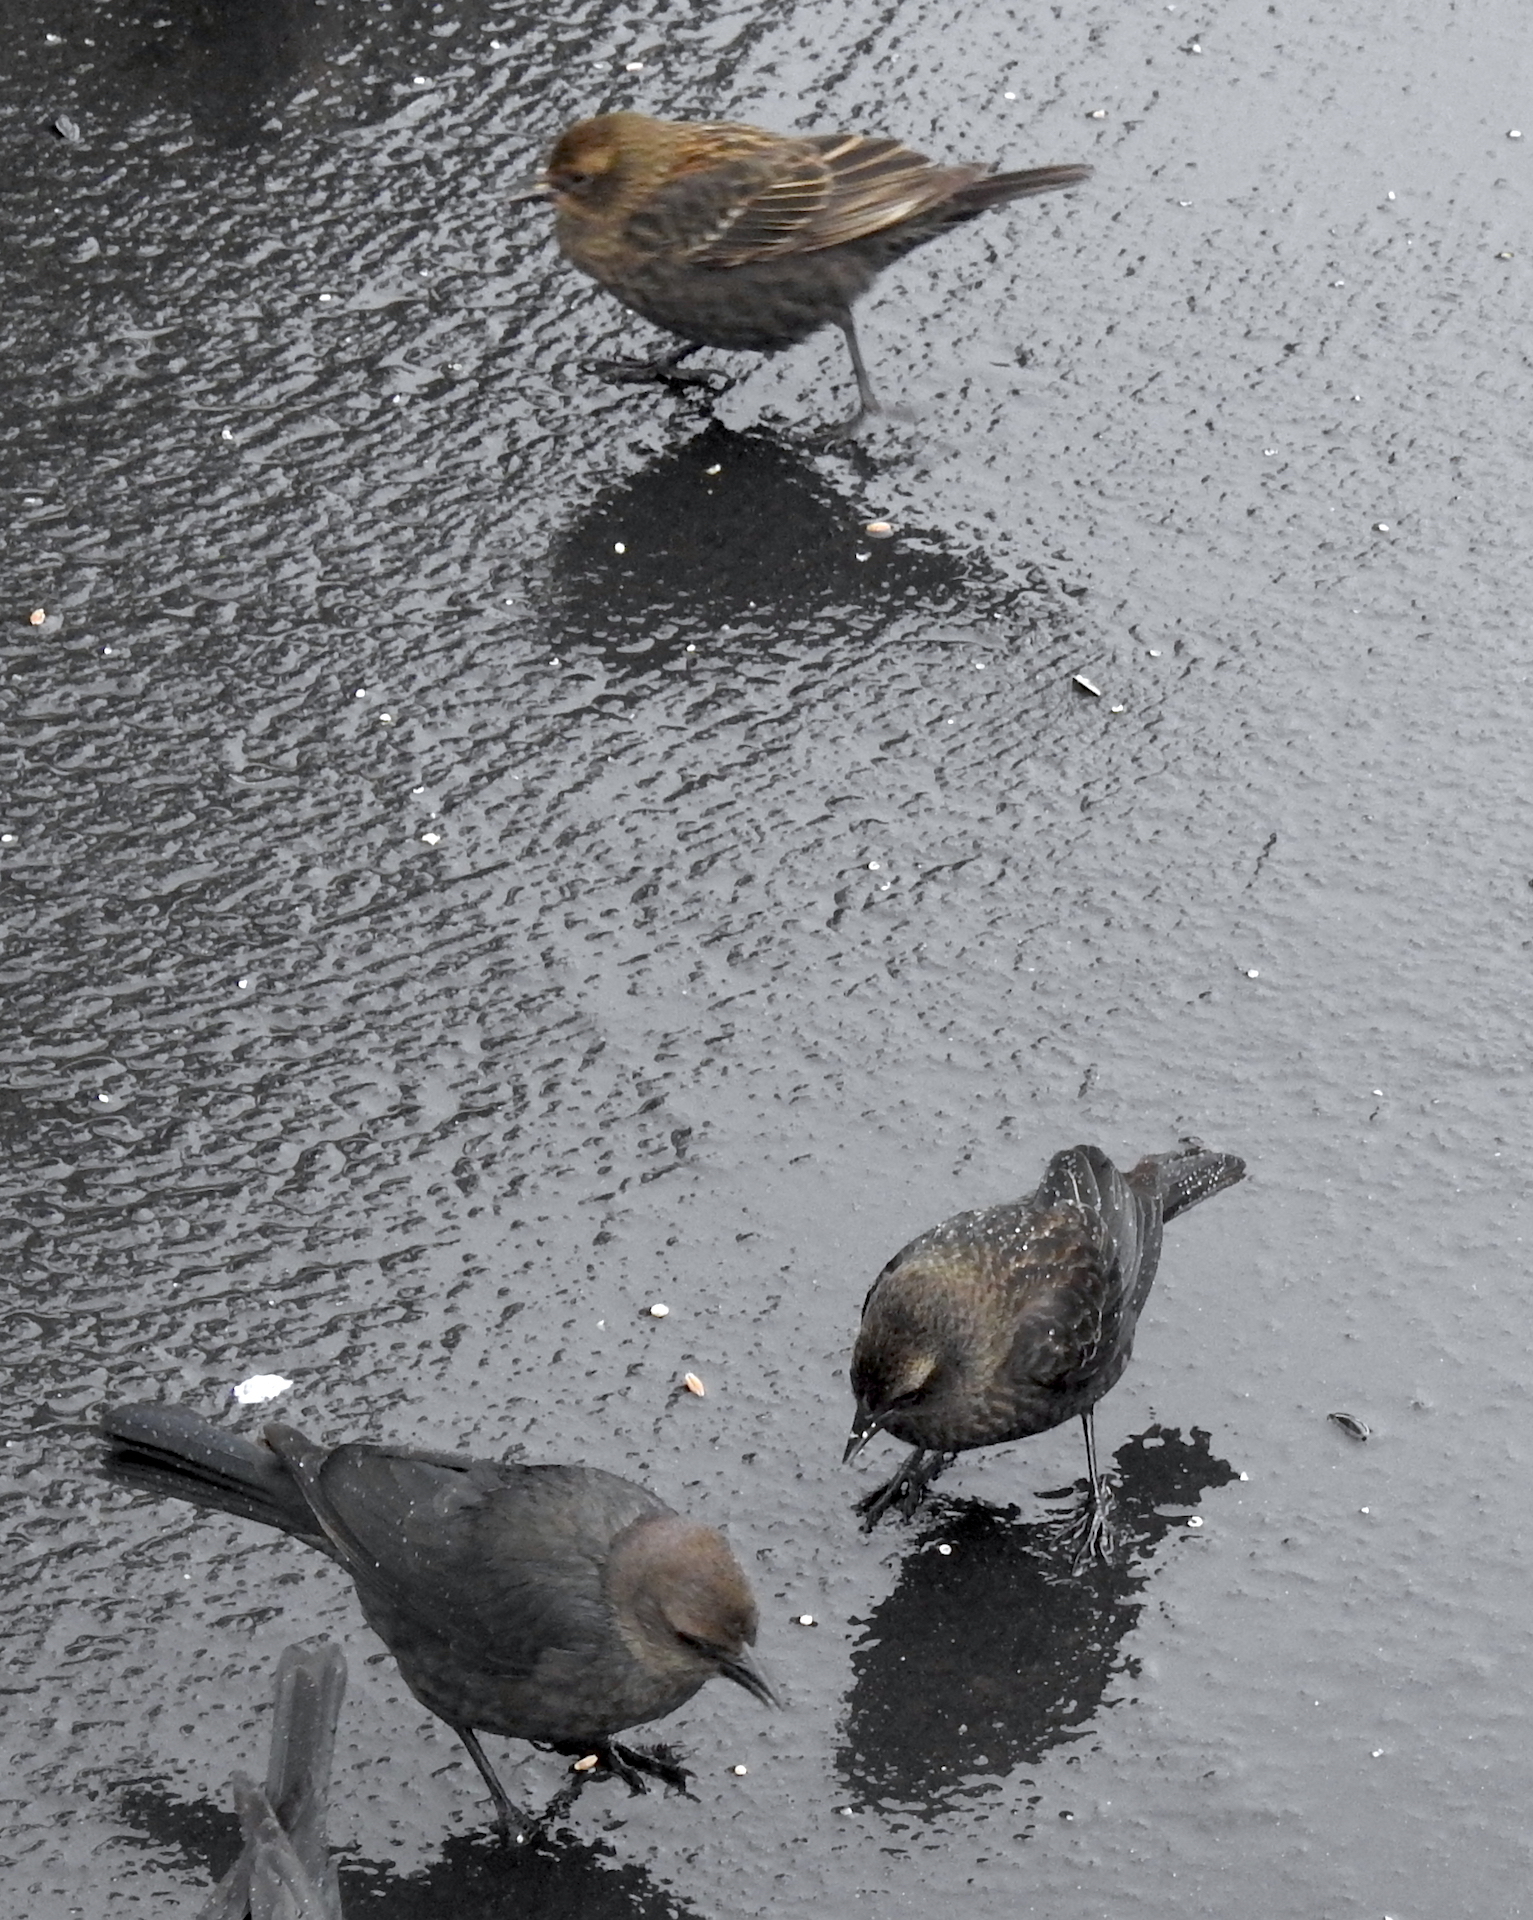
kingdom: Animalia
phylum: Chordata
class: Aves
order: Passeriformes
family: Icteridae
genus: Agelaius
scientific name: Agelaius tricolor
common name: Tricolored blackbird
